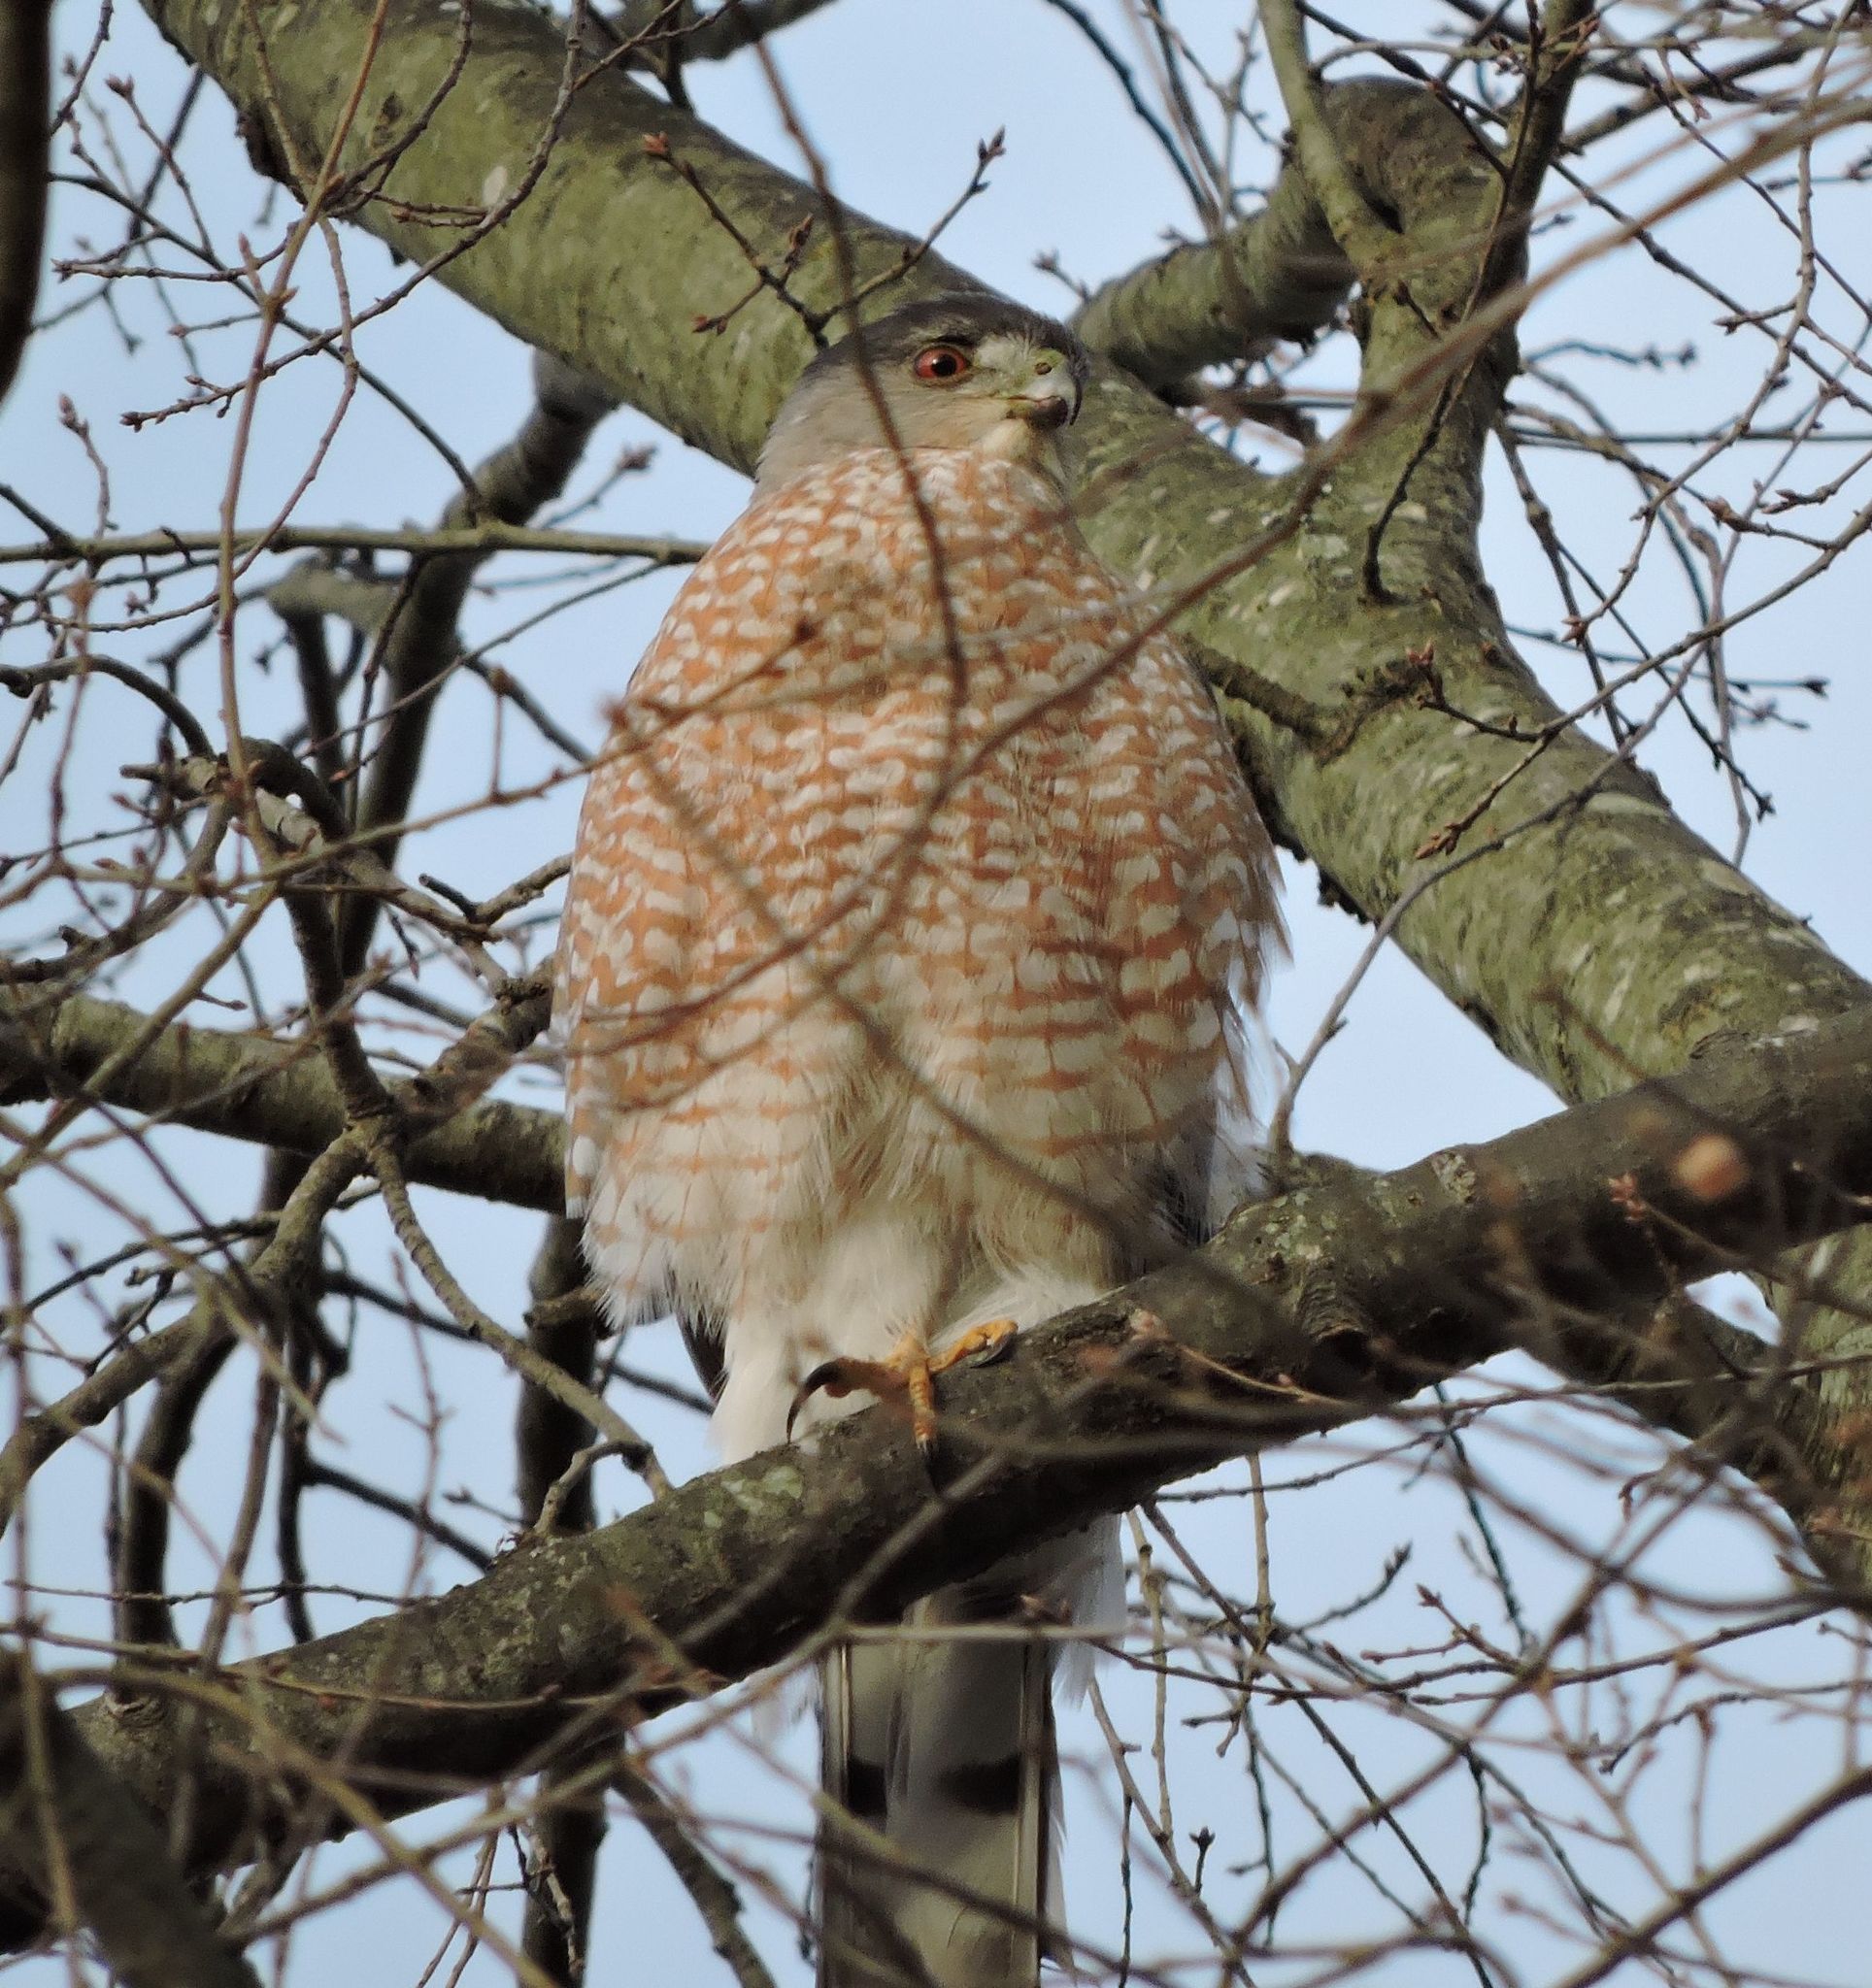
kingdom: Animalia
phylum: Chordata
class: Aves
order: Accipitriformes
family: Accipitridae
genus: Accipiter
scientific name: Accipiter cooperii
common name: Cooper's hawk
